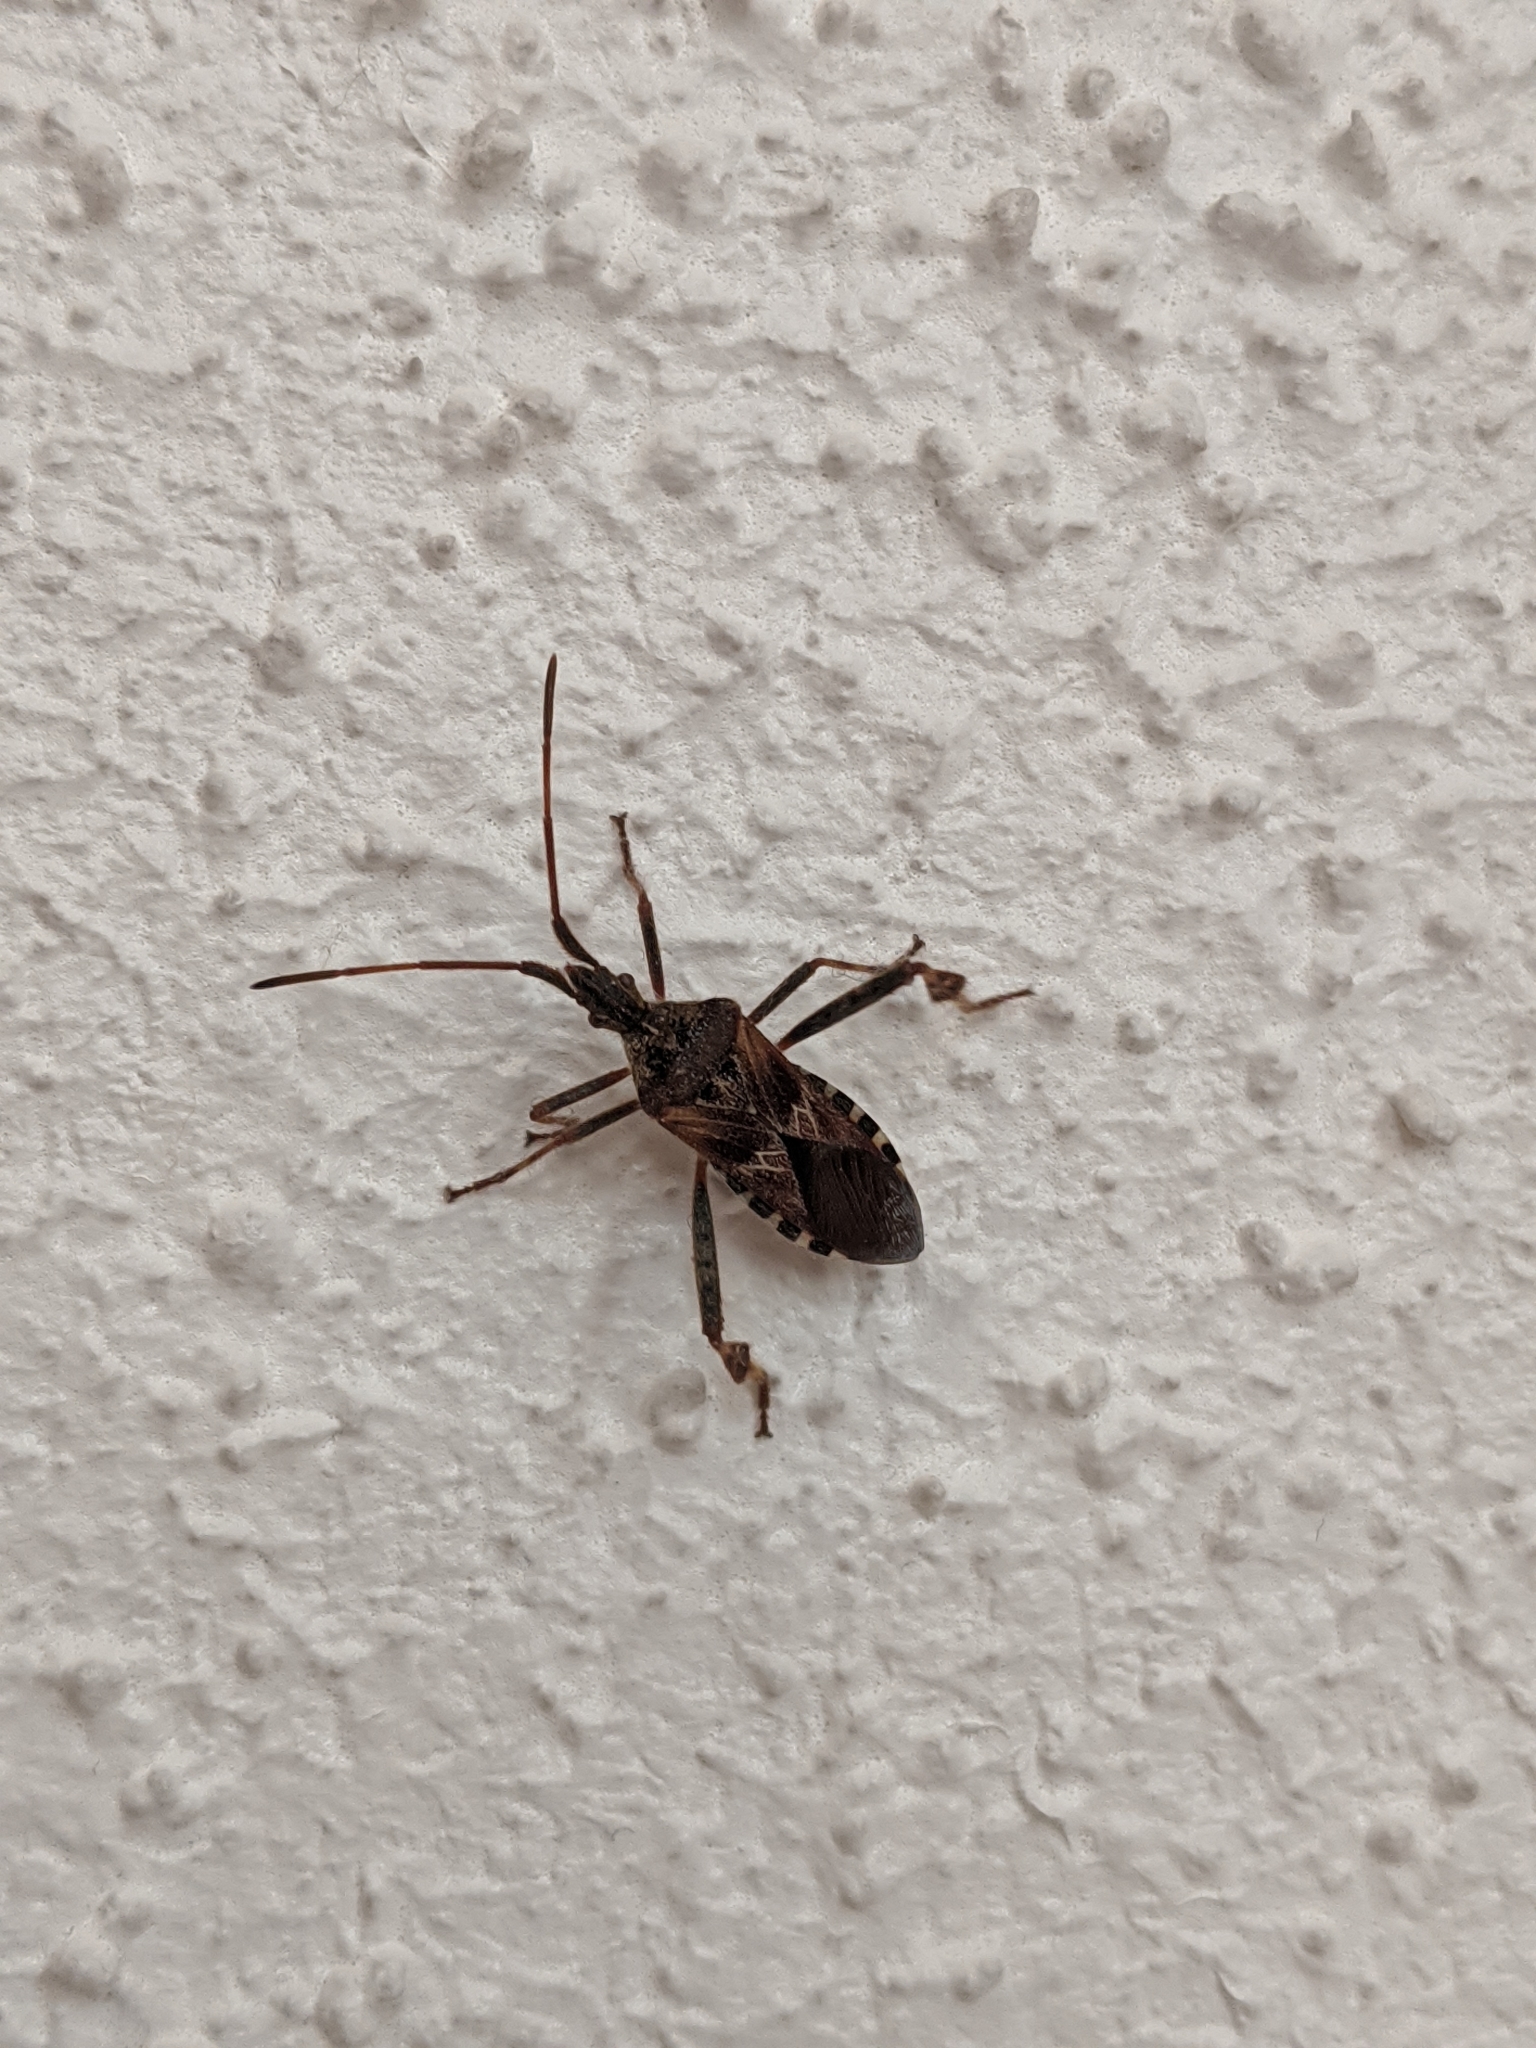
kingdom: Animalia
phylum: Arthropoda
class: Insecta
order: Hemiptera
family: Coreidae
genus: Leptoglossus
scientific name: Leptoglossus occidentalis
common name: Western conifer-seed bug
